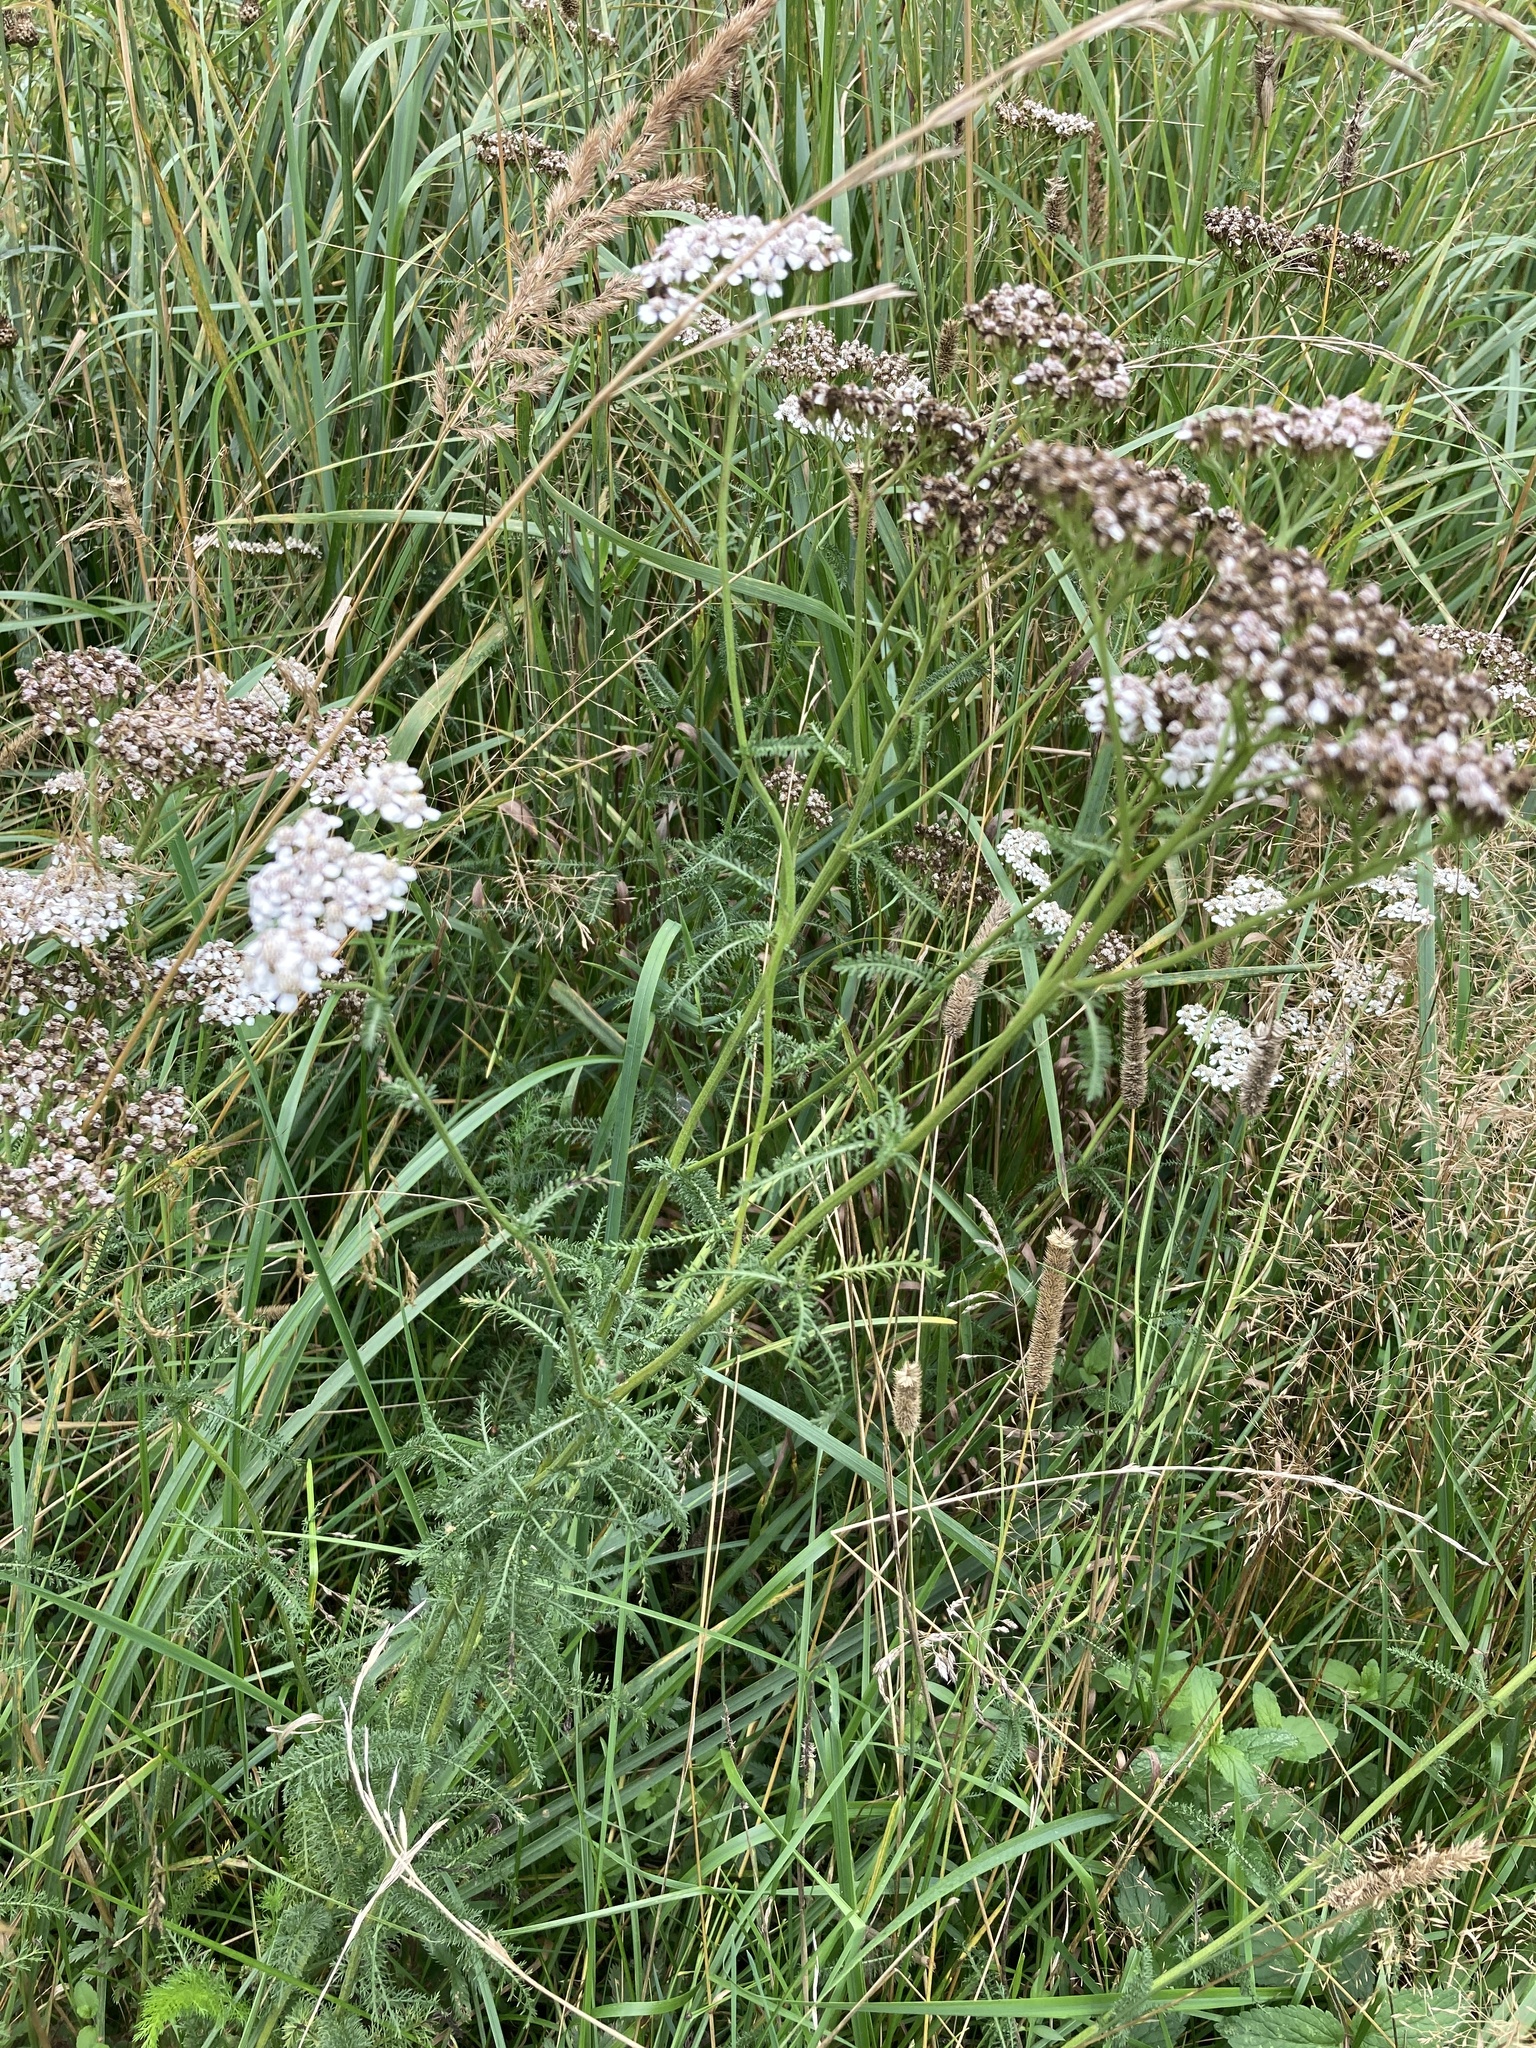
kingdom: Plantae
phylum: Tracheophyta
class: Magnoliopsida
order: Asterales
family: Asteraceae
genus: Achillea
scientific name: Achillea millefolium
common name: Yarrow
